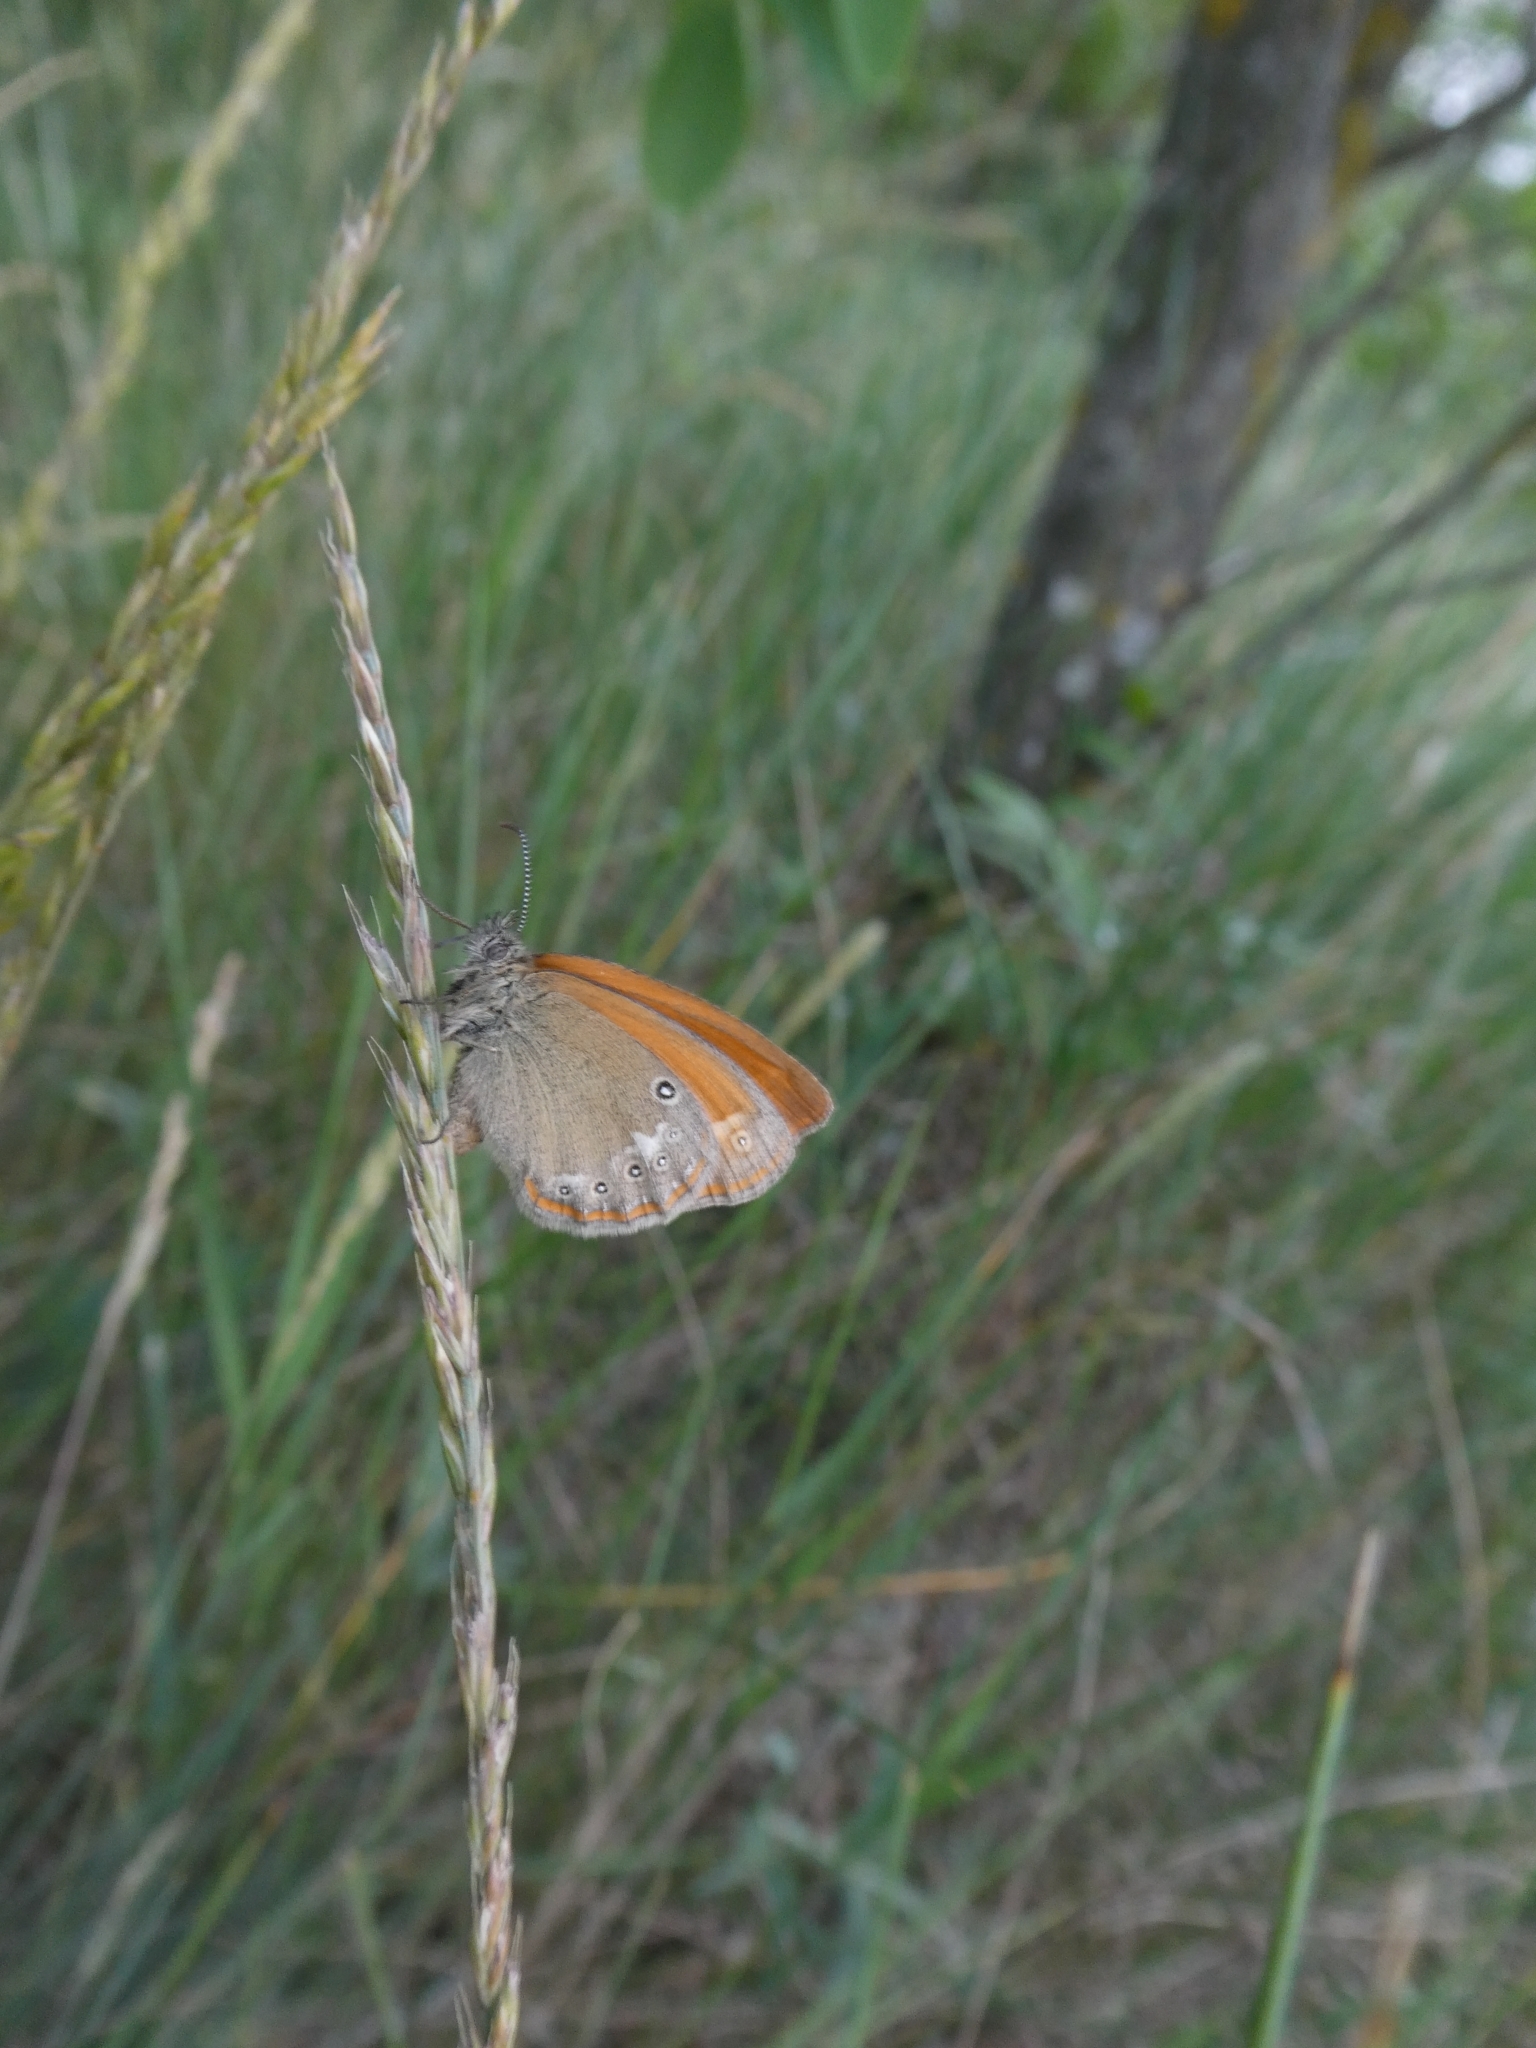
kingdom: Animalia
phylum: Arthropoda
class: Insecta
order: Lepidoptera
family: Nymphalidae
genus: Coenonympha
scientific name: Coenonympha iphis
